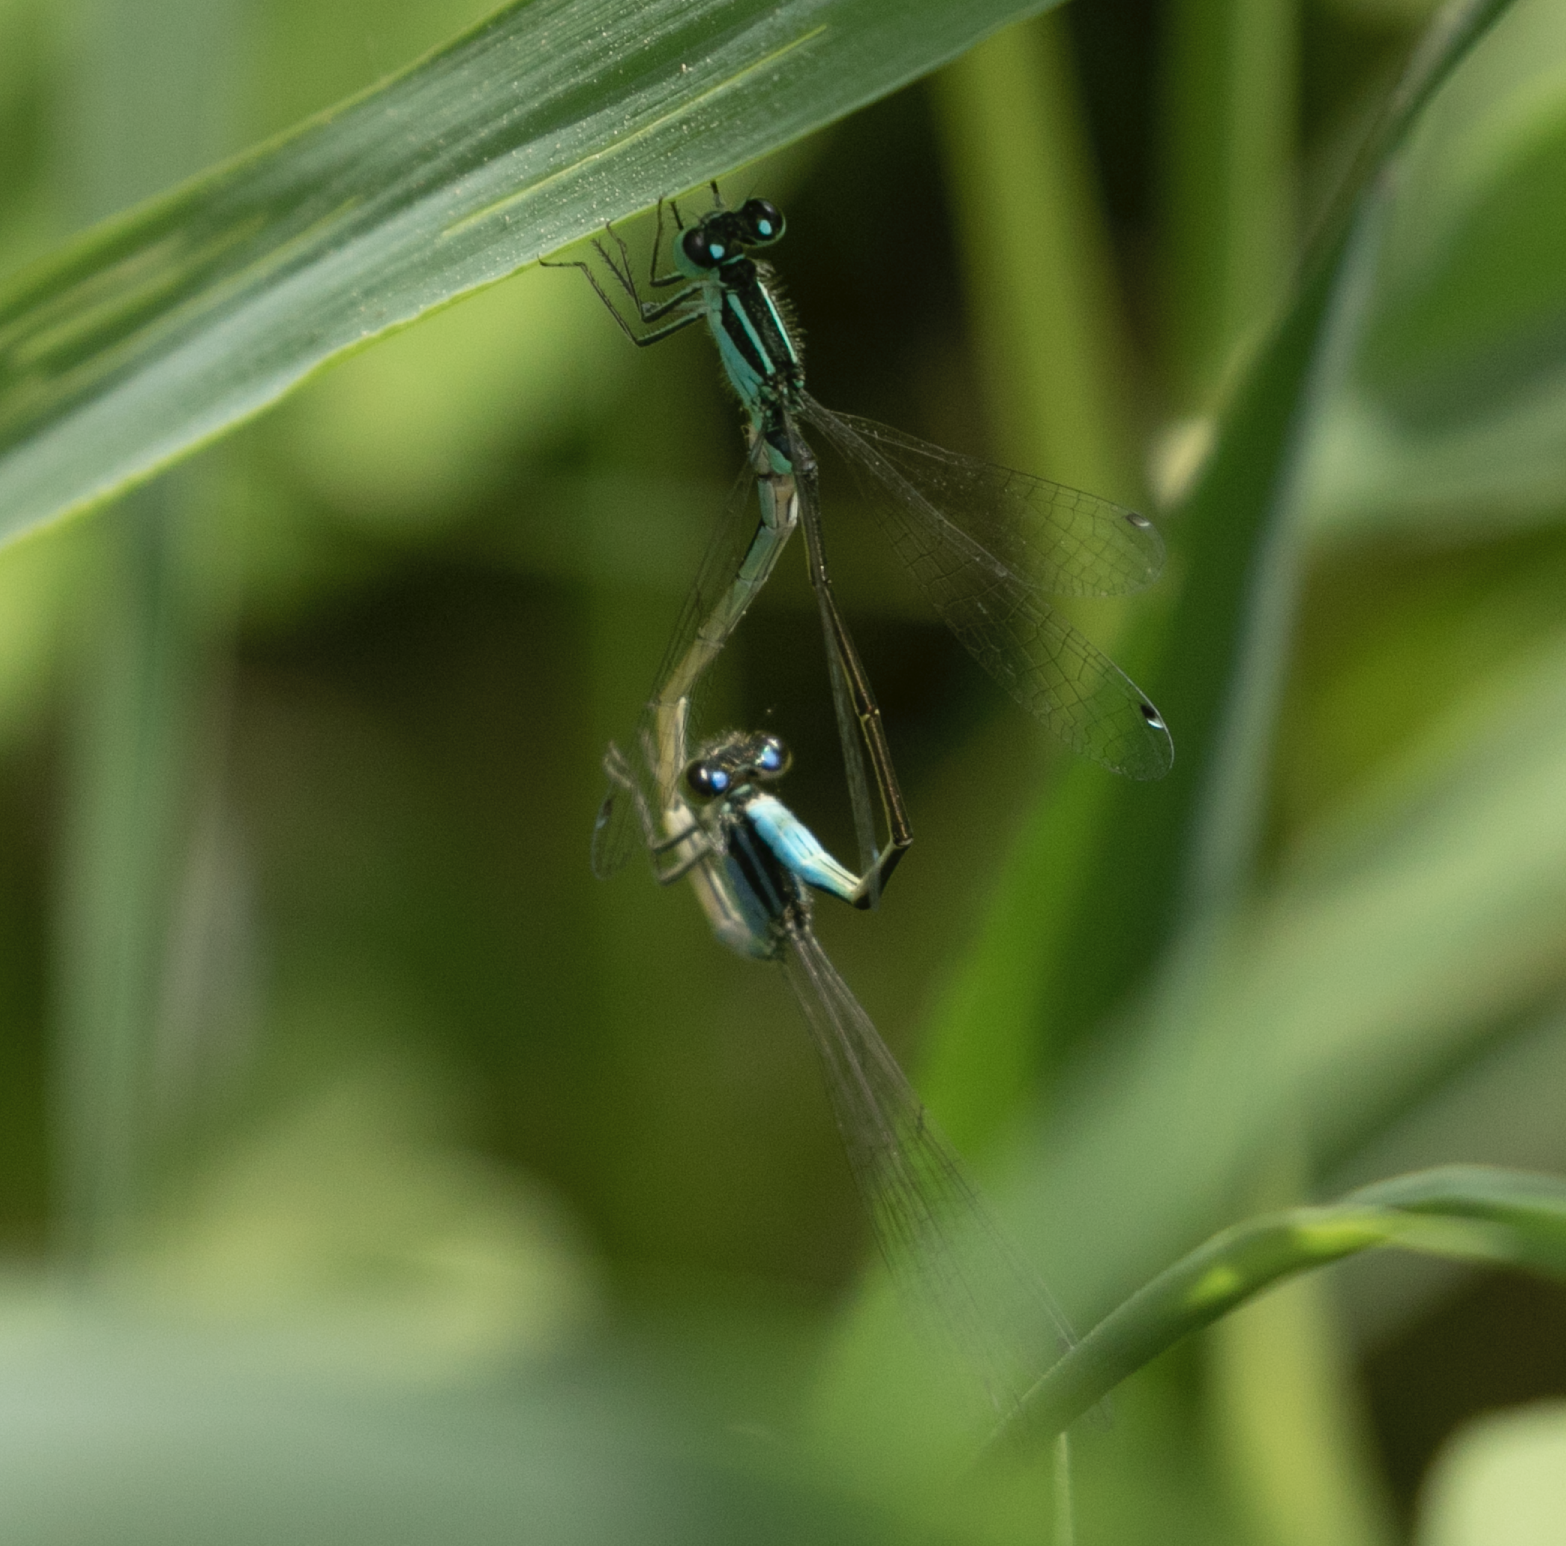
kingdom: Animalia
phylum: Arthropoda
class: Insecta
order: Odonata
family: Coenagrionidae
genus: Ischnura
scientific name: Ischnura elegans
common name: Blue-tailed damselfly
